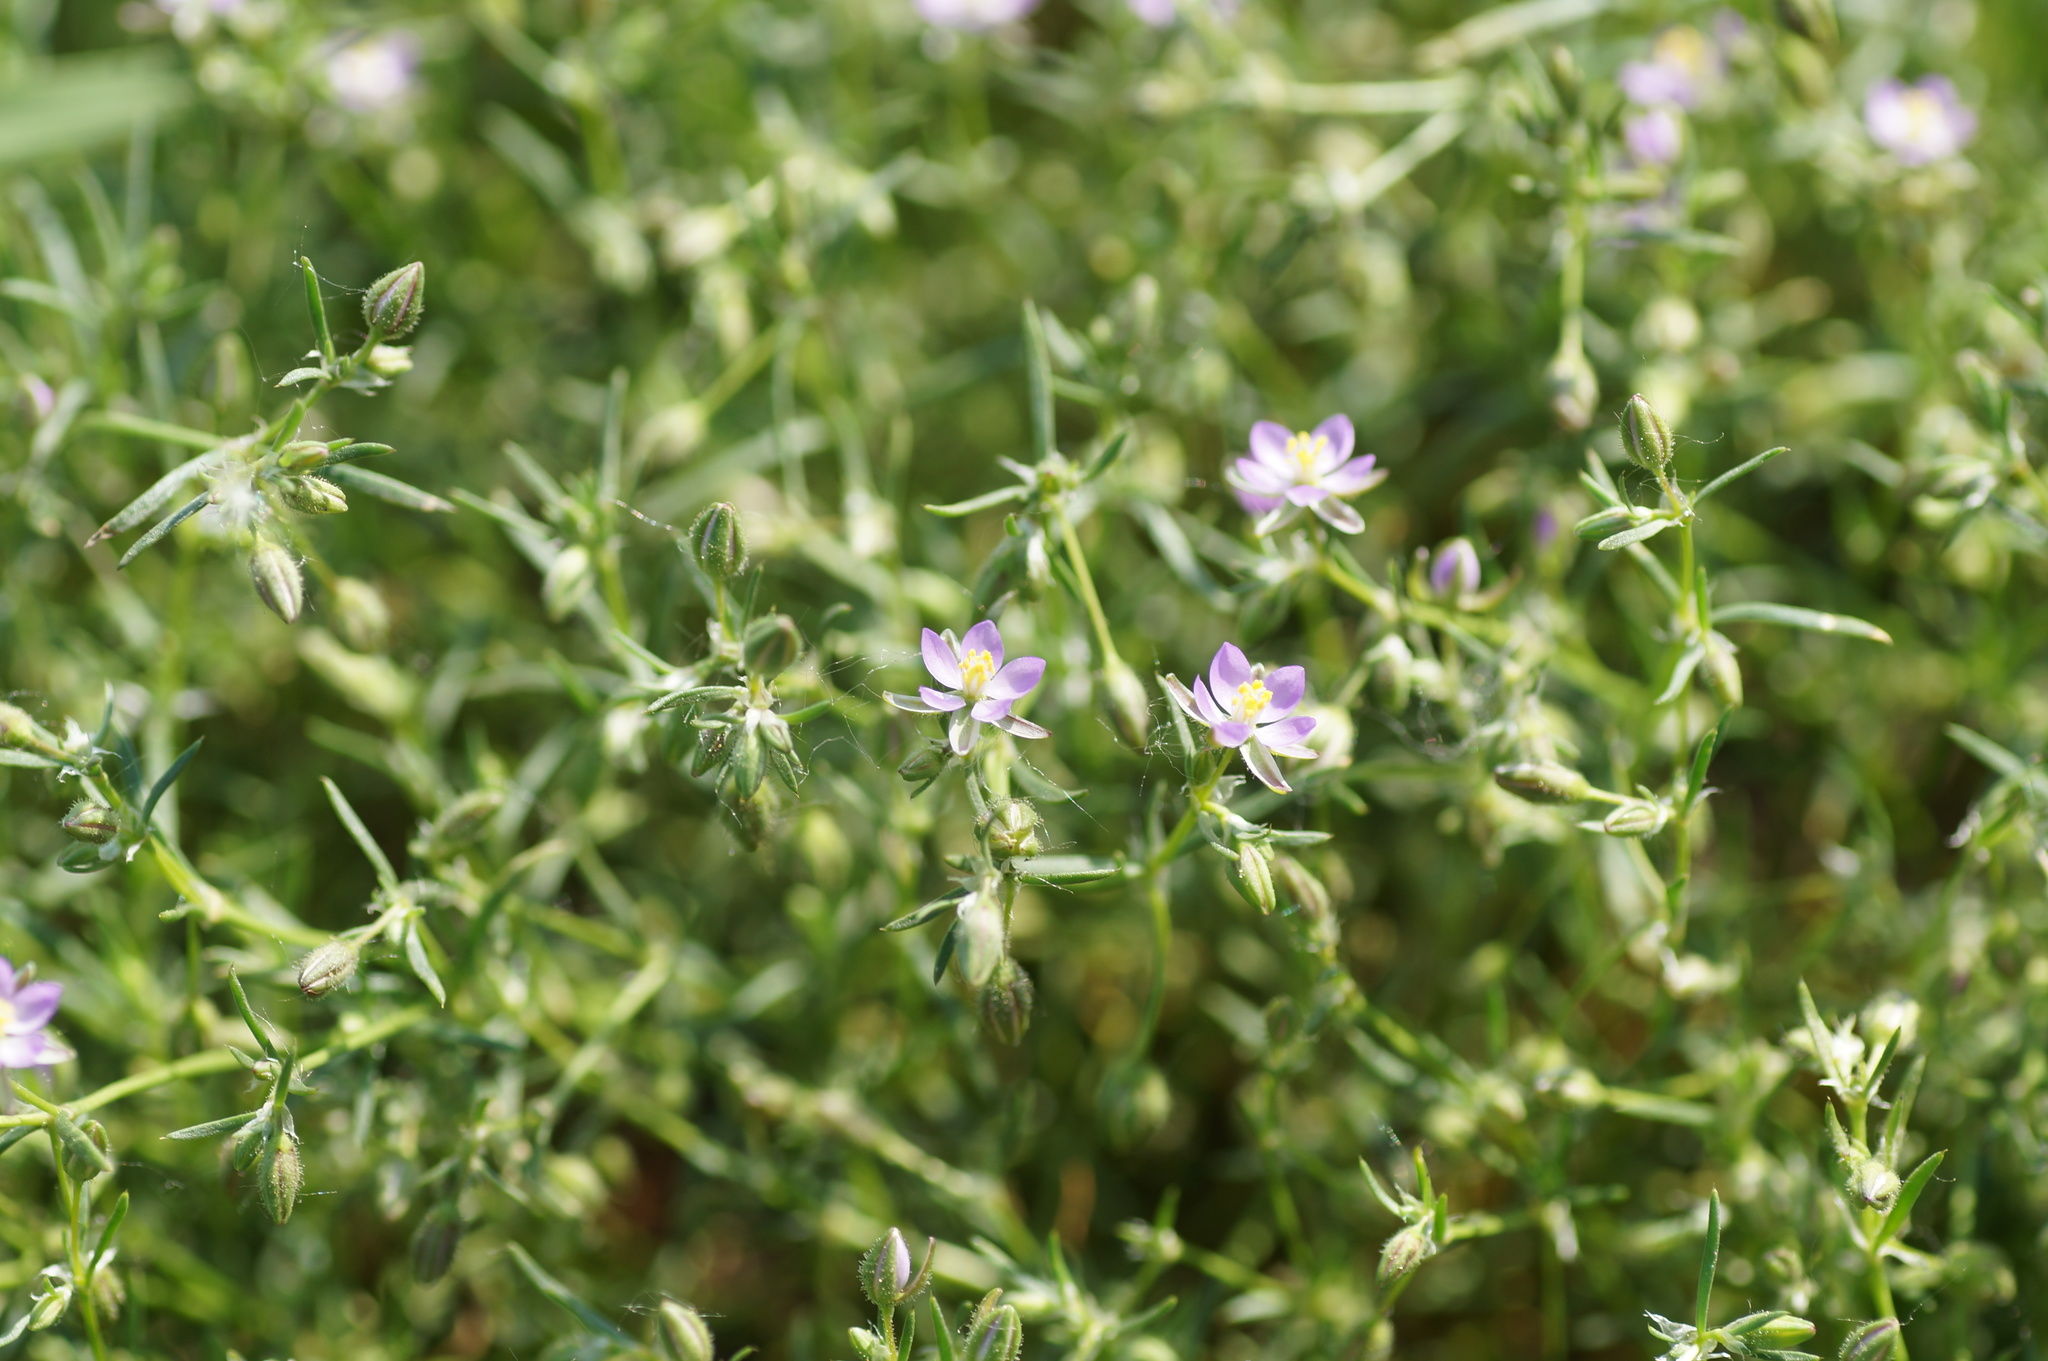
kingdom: Plantae
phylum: Tracheophyta
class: Magnoliopsida
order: Caryophyllales
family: Caryophyllaceae
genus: Spergularia
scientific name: Spergularia rubra
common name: Red sand-spurrey
